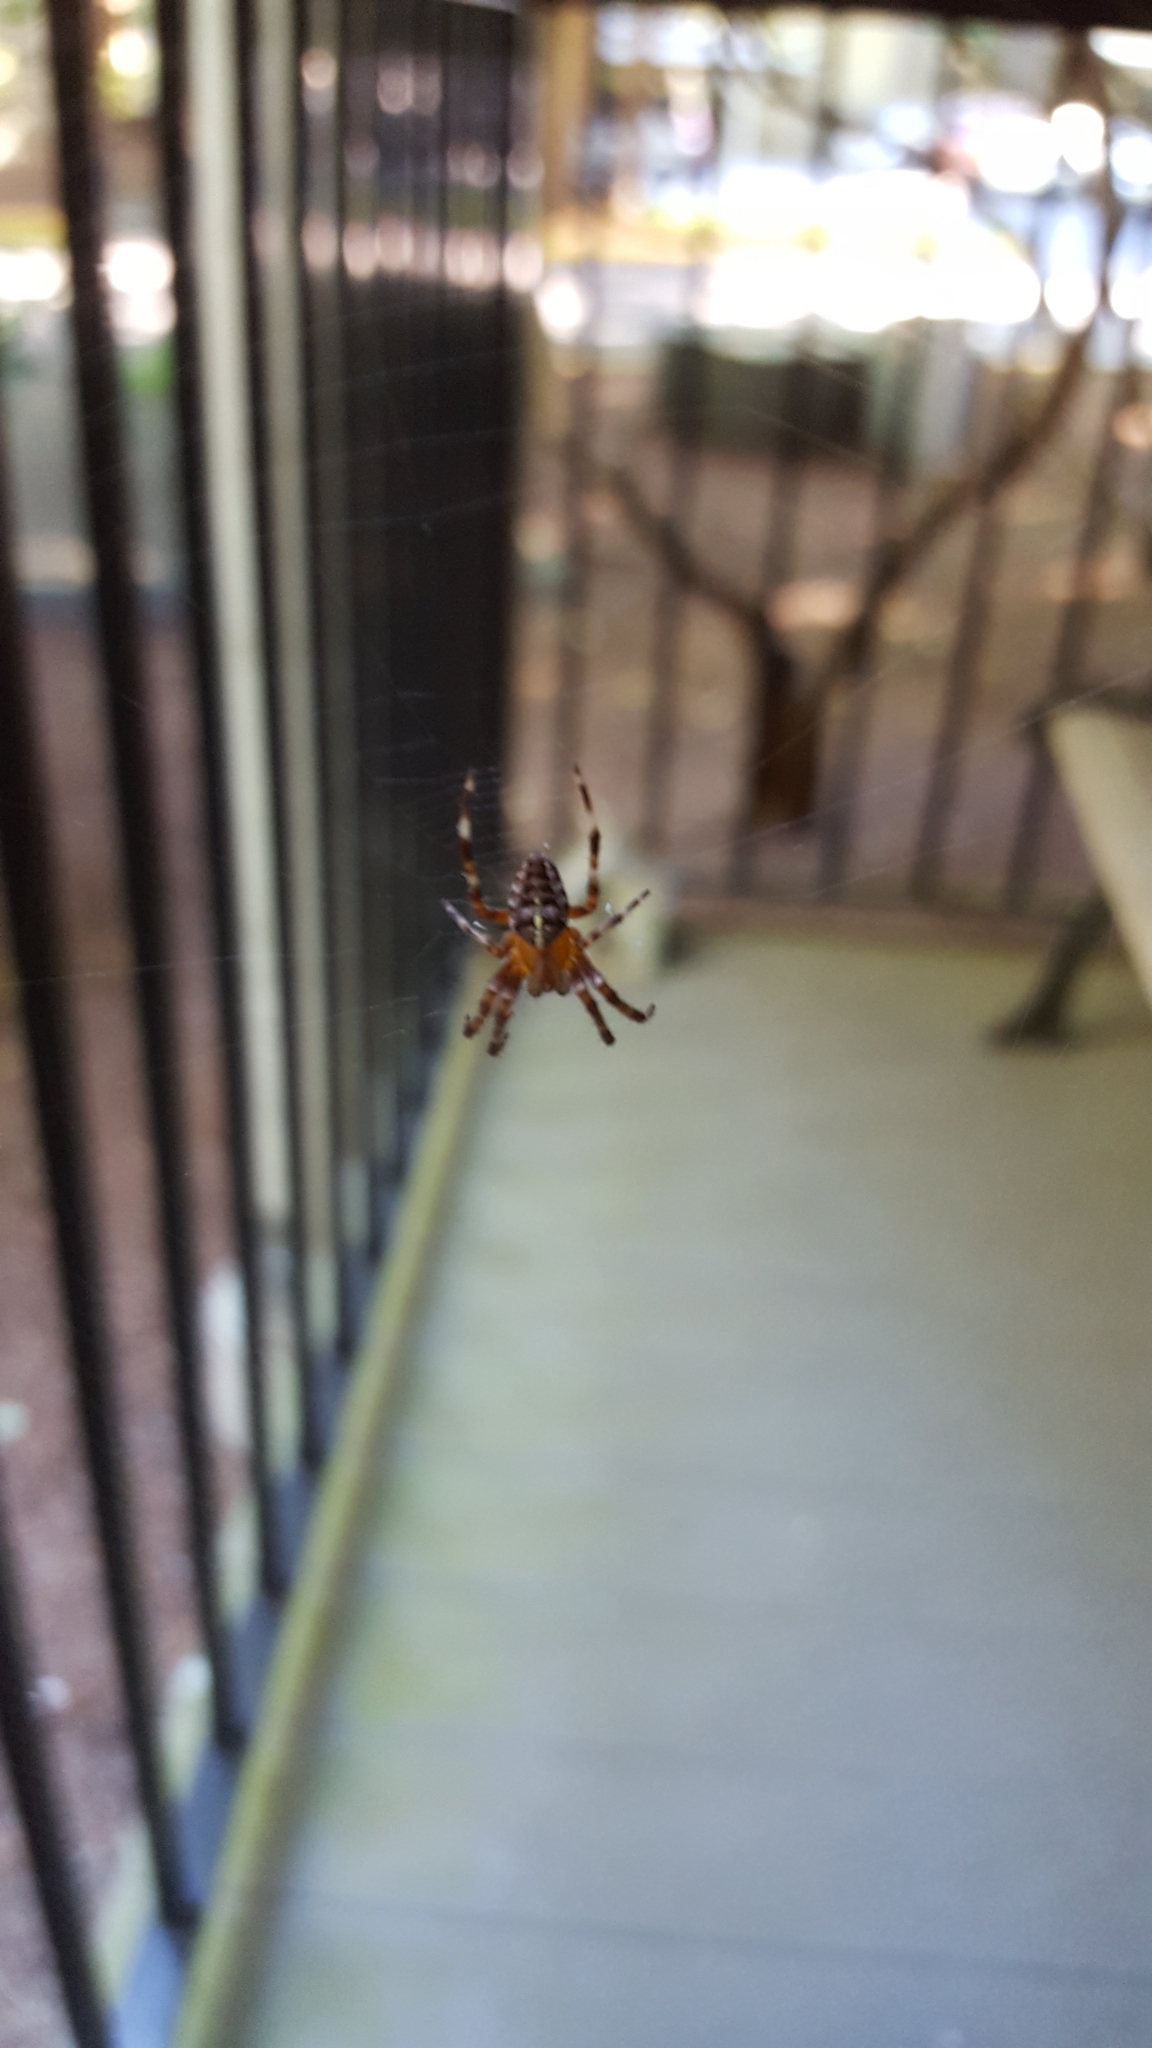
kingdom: Animalia
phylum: Arthropoda
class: Arachnida
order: Araneae
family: Araneidae
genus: Araneus
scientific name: Araneus diadematus
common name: Cross orbweaver
